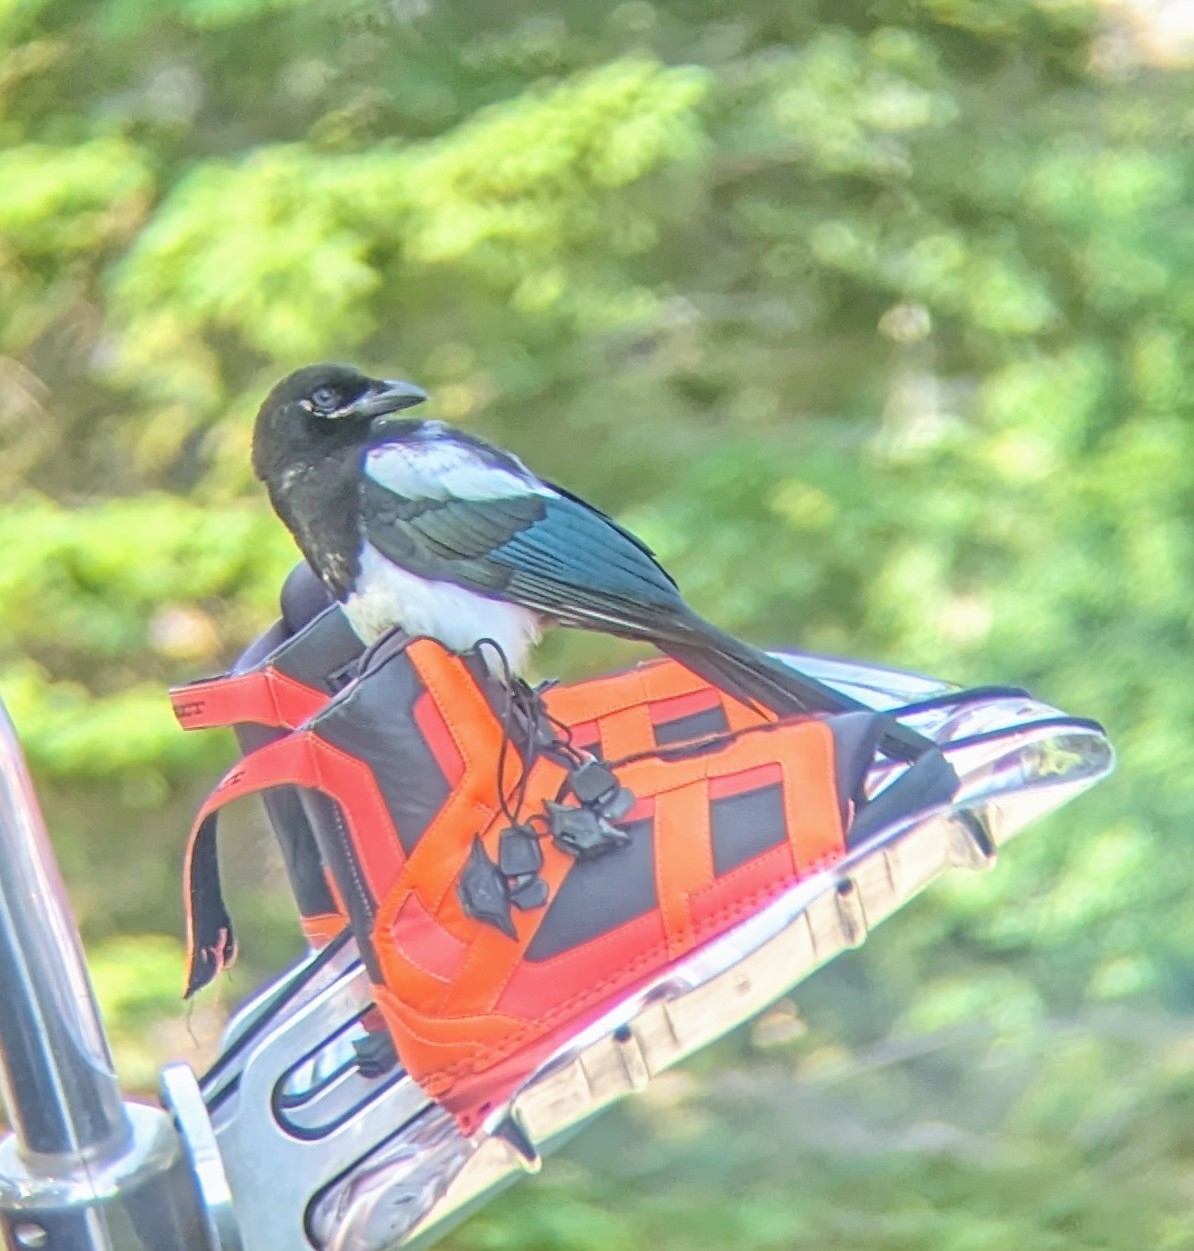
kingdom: Animalia
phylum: Chordata
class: Aves
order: Passeriformes
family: Corvidae
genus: Pica
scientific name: Pica hudsonia
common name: Black-billed magpie
